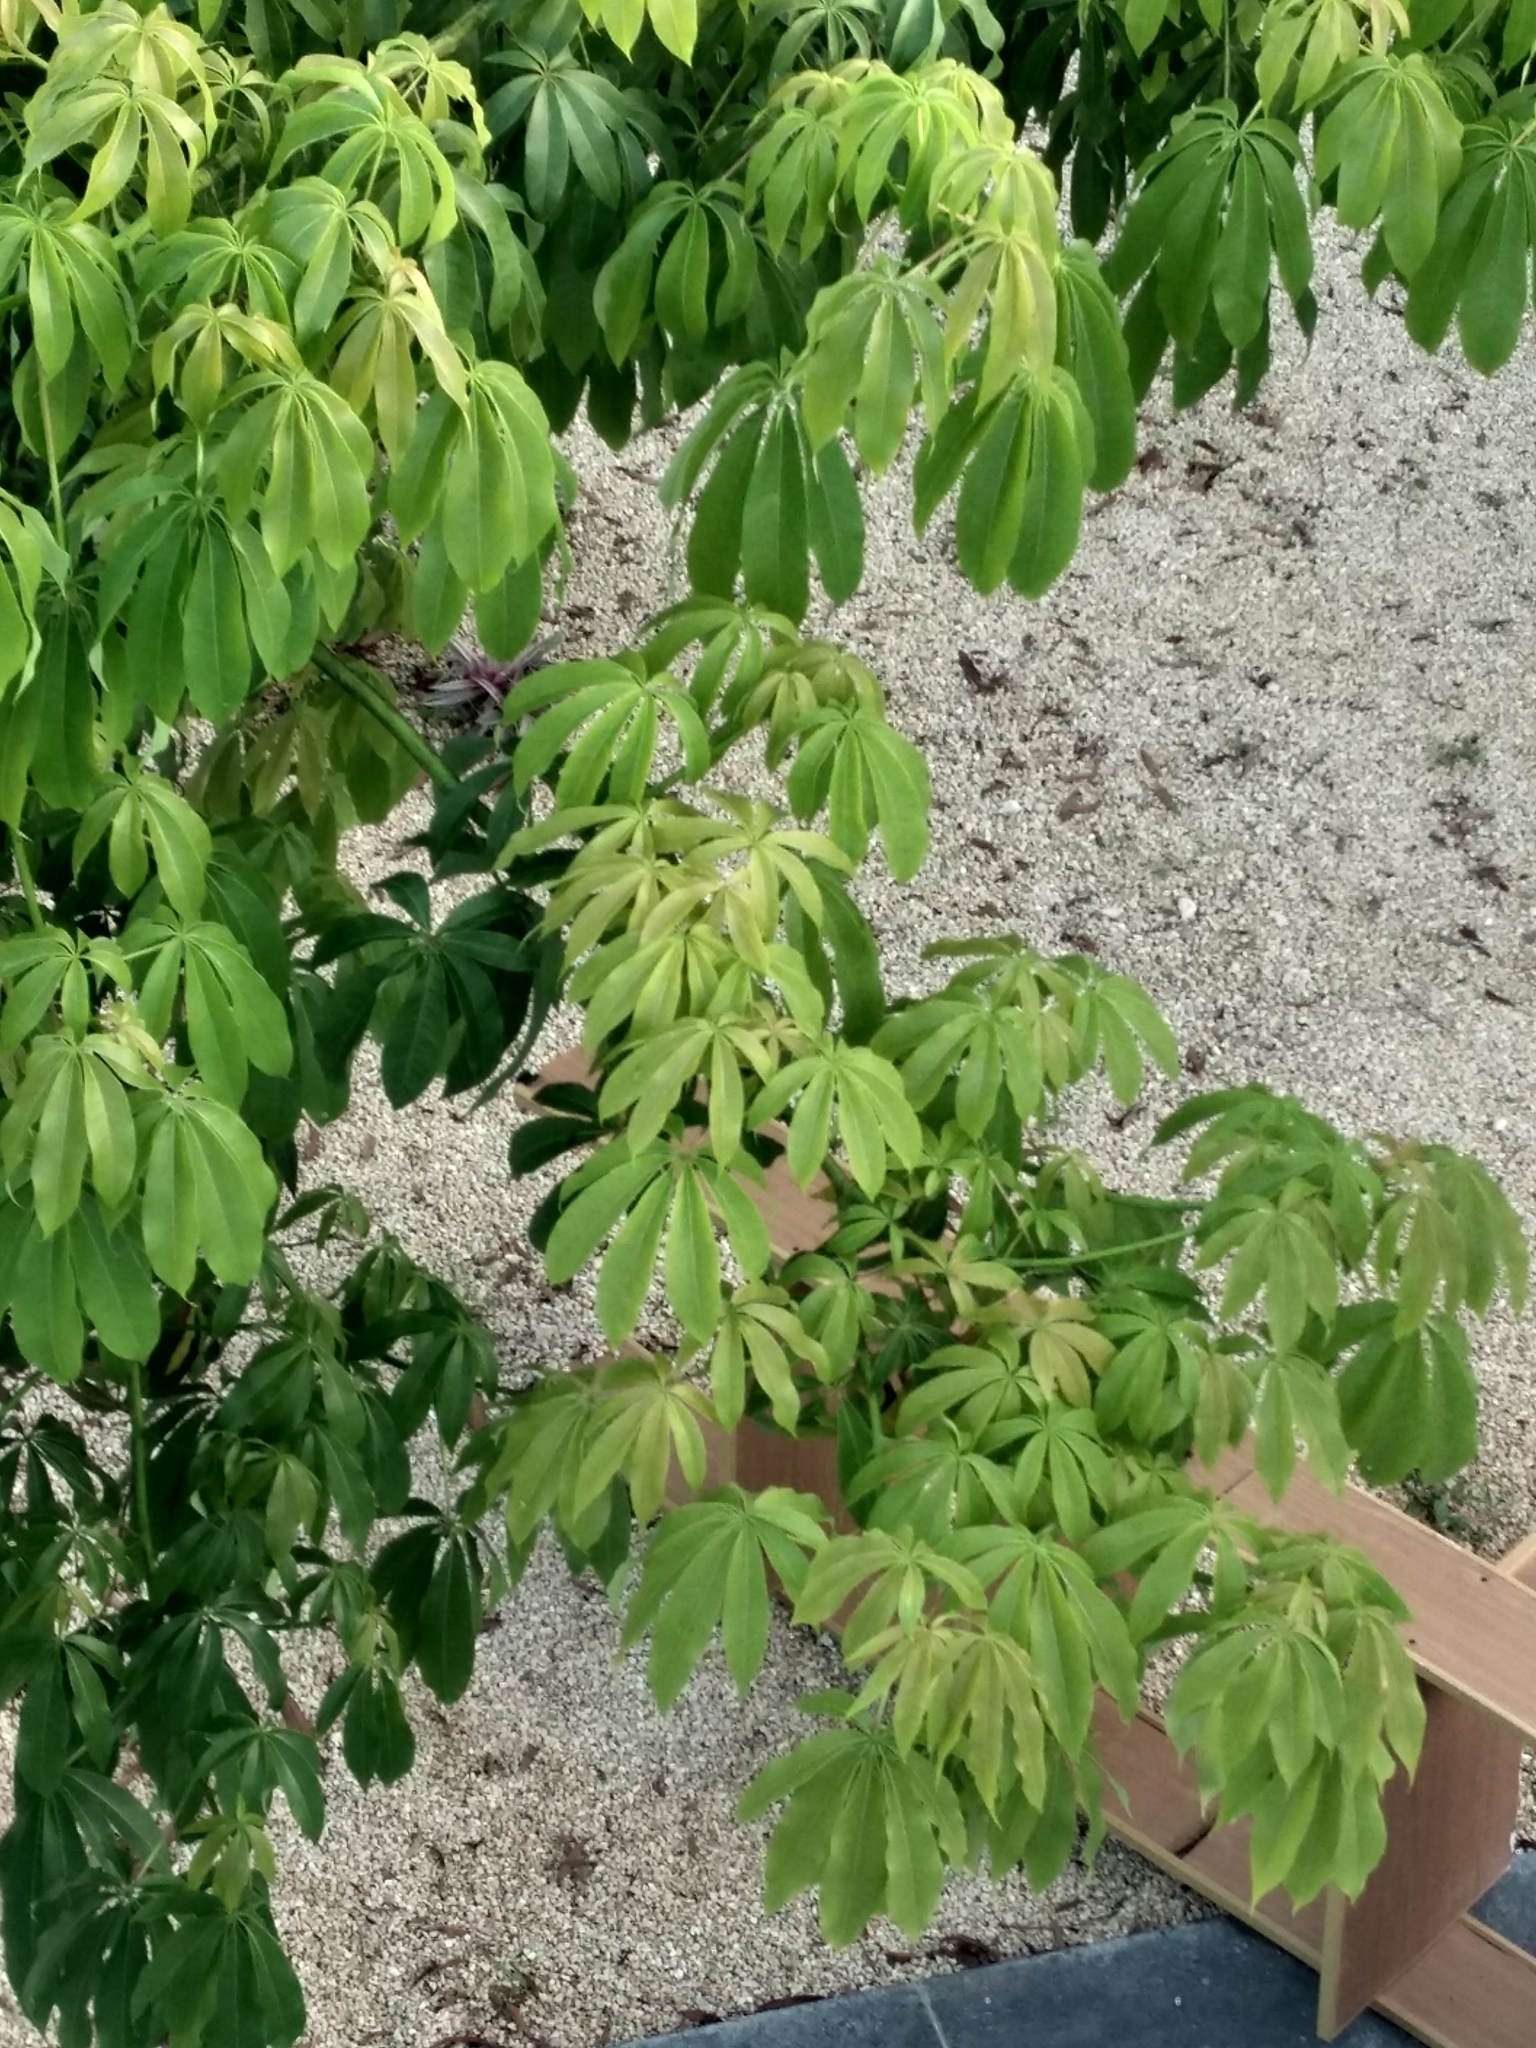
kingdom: Plantae
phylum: Tracheophyta
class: Magnoliopsida
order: Malvales
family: Malvaceae
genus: Ceiba
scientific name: Ceiba pentandra
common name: Kapok
